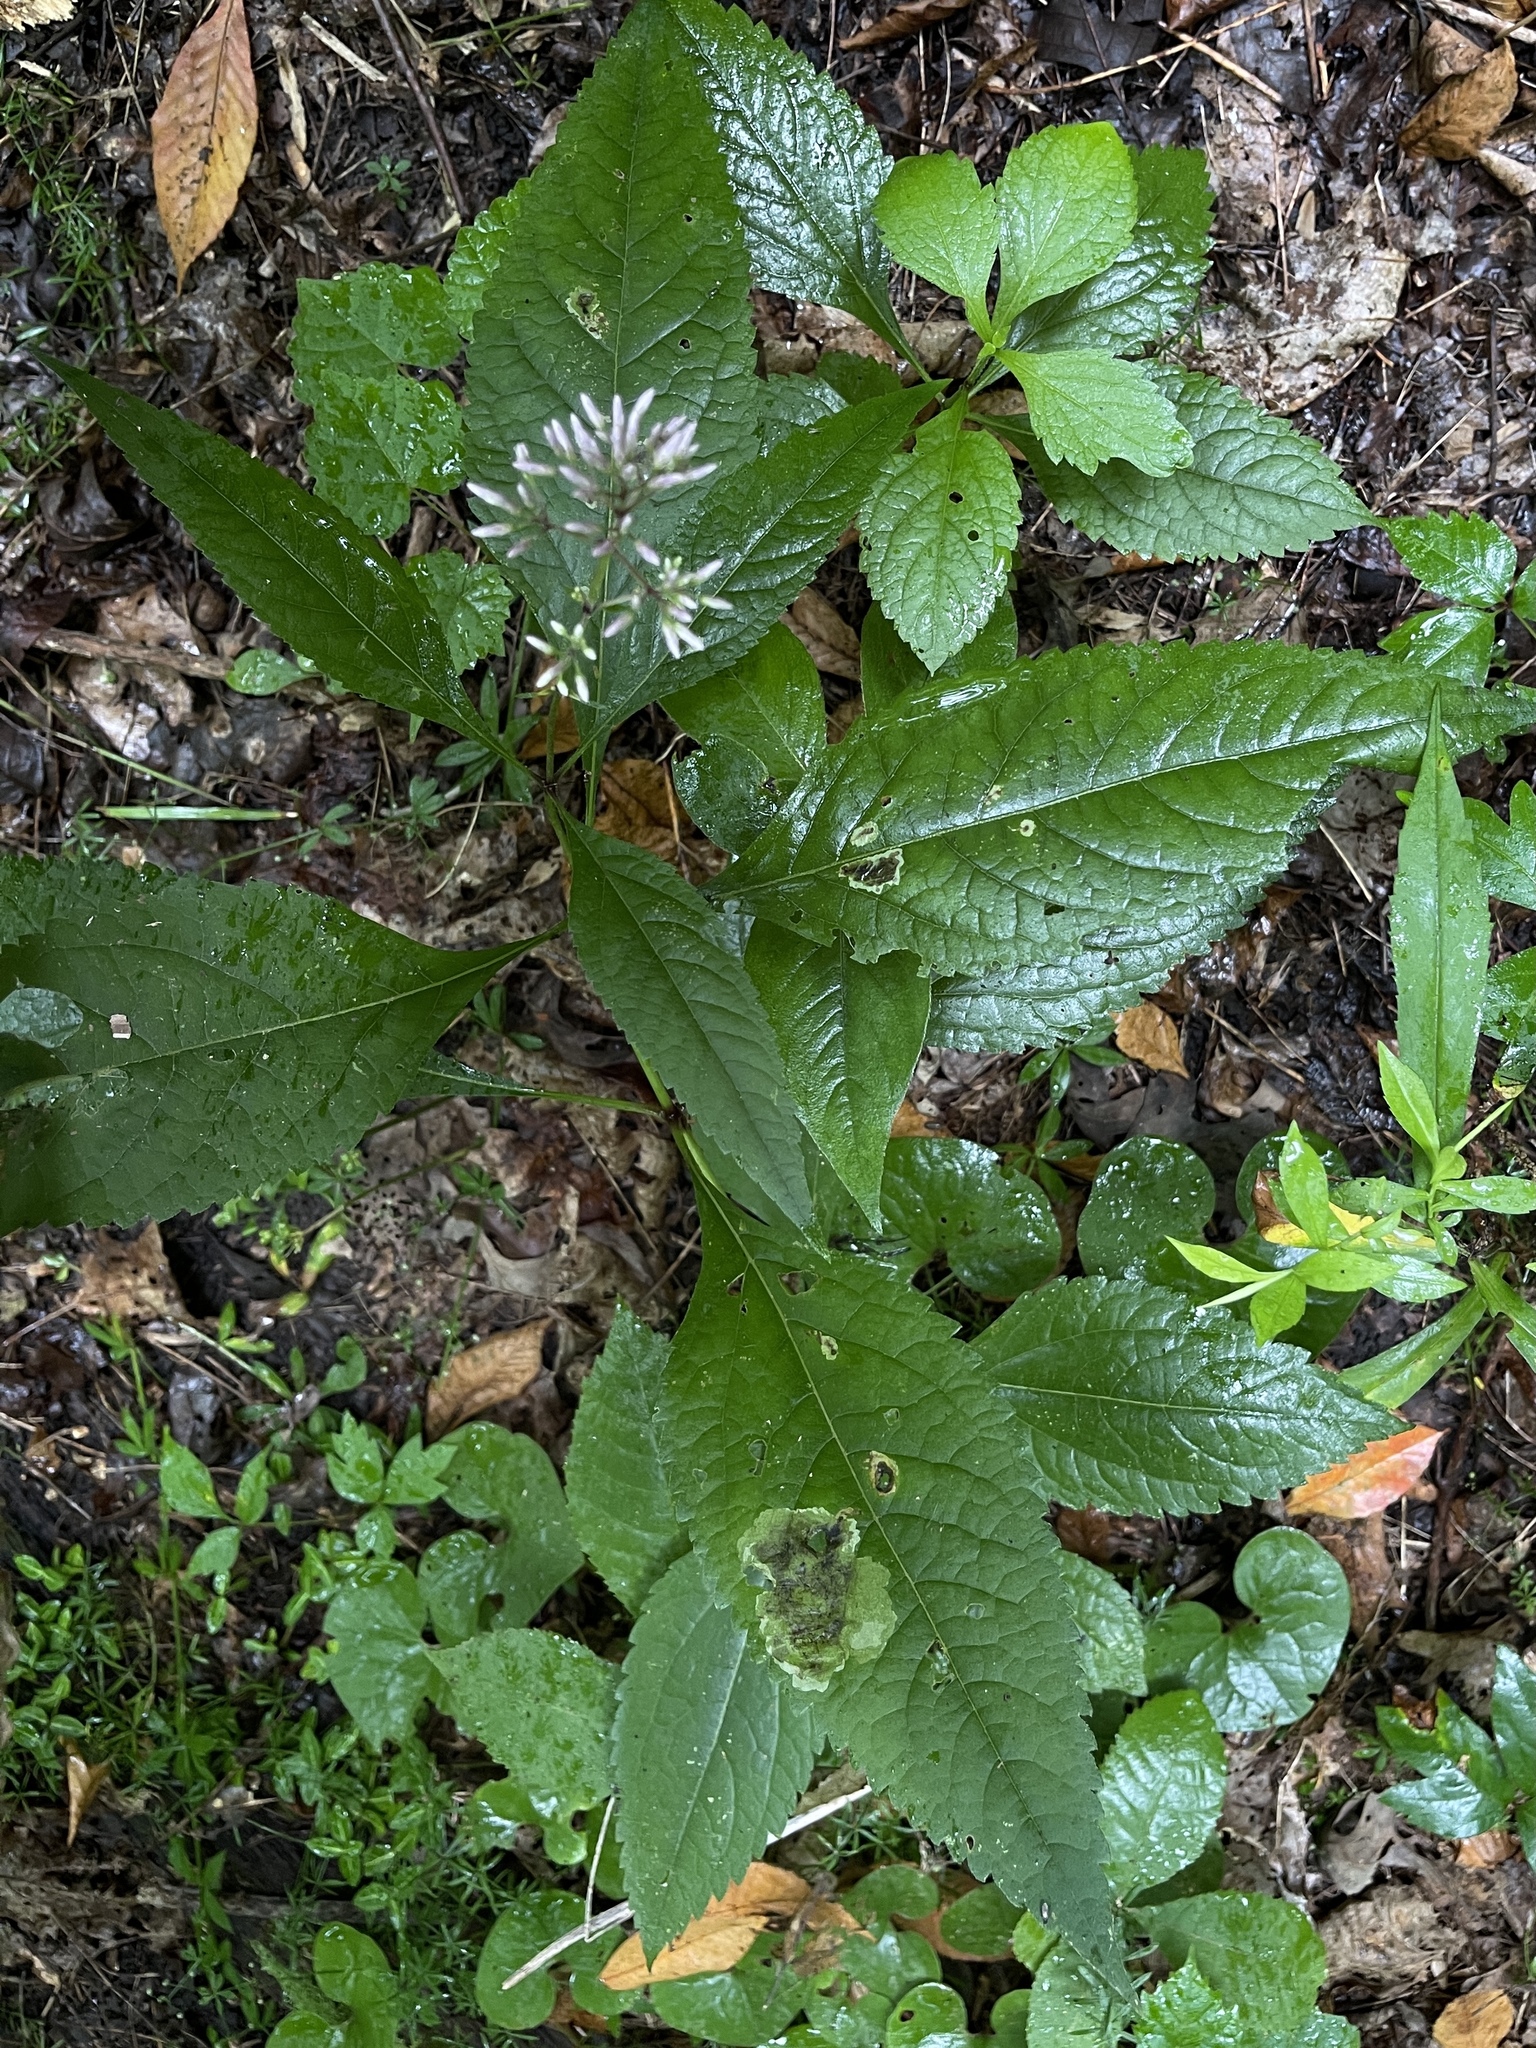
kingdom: Plantae
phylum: Tracheophyta
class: Magnoliopsida
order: Asterales
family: Asteraceae
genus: Eutrochium
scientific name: Eutrochium purpureum
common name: Gravelroot
